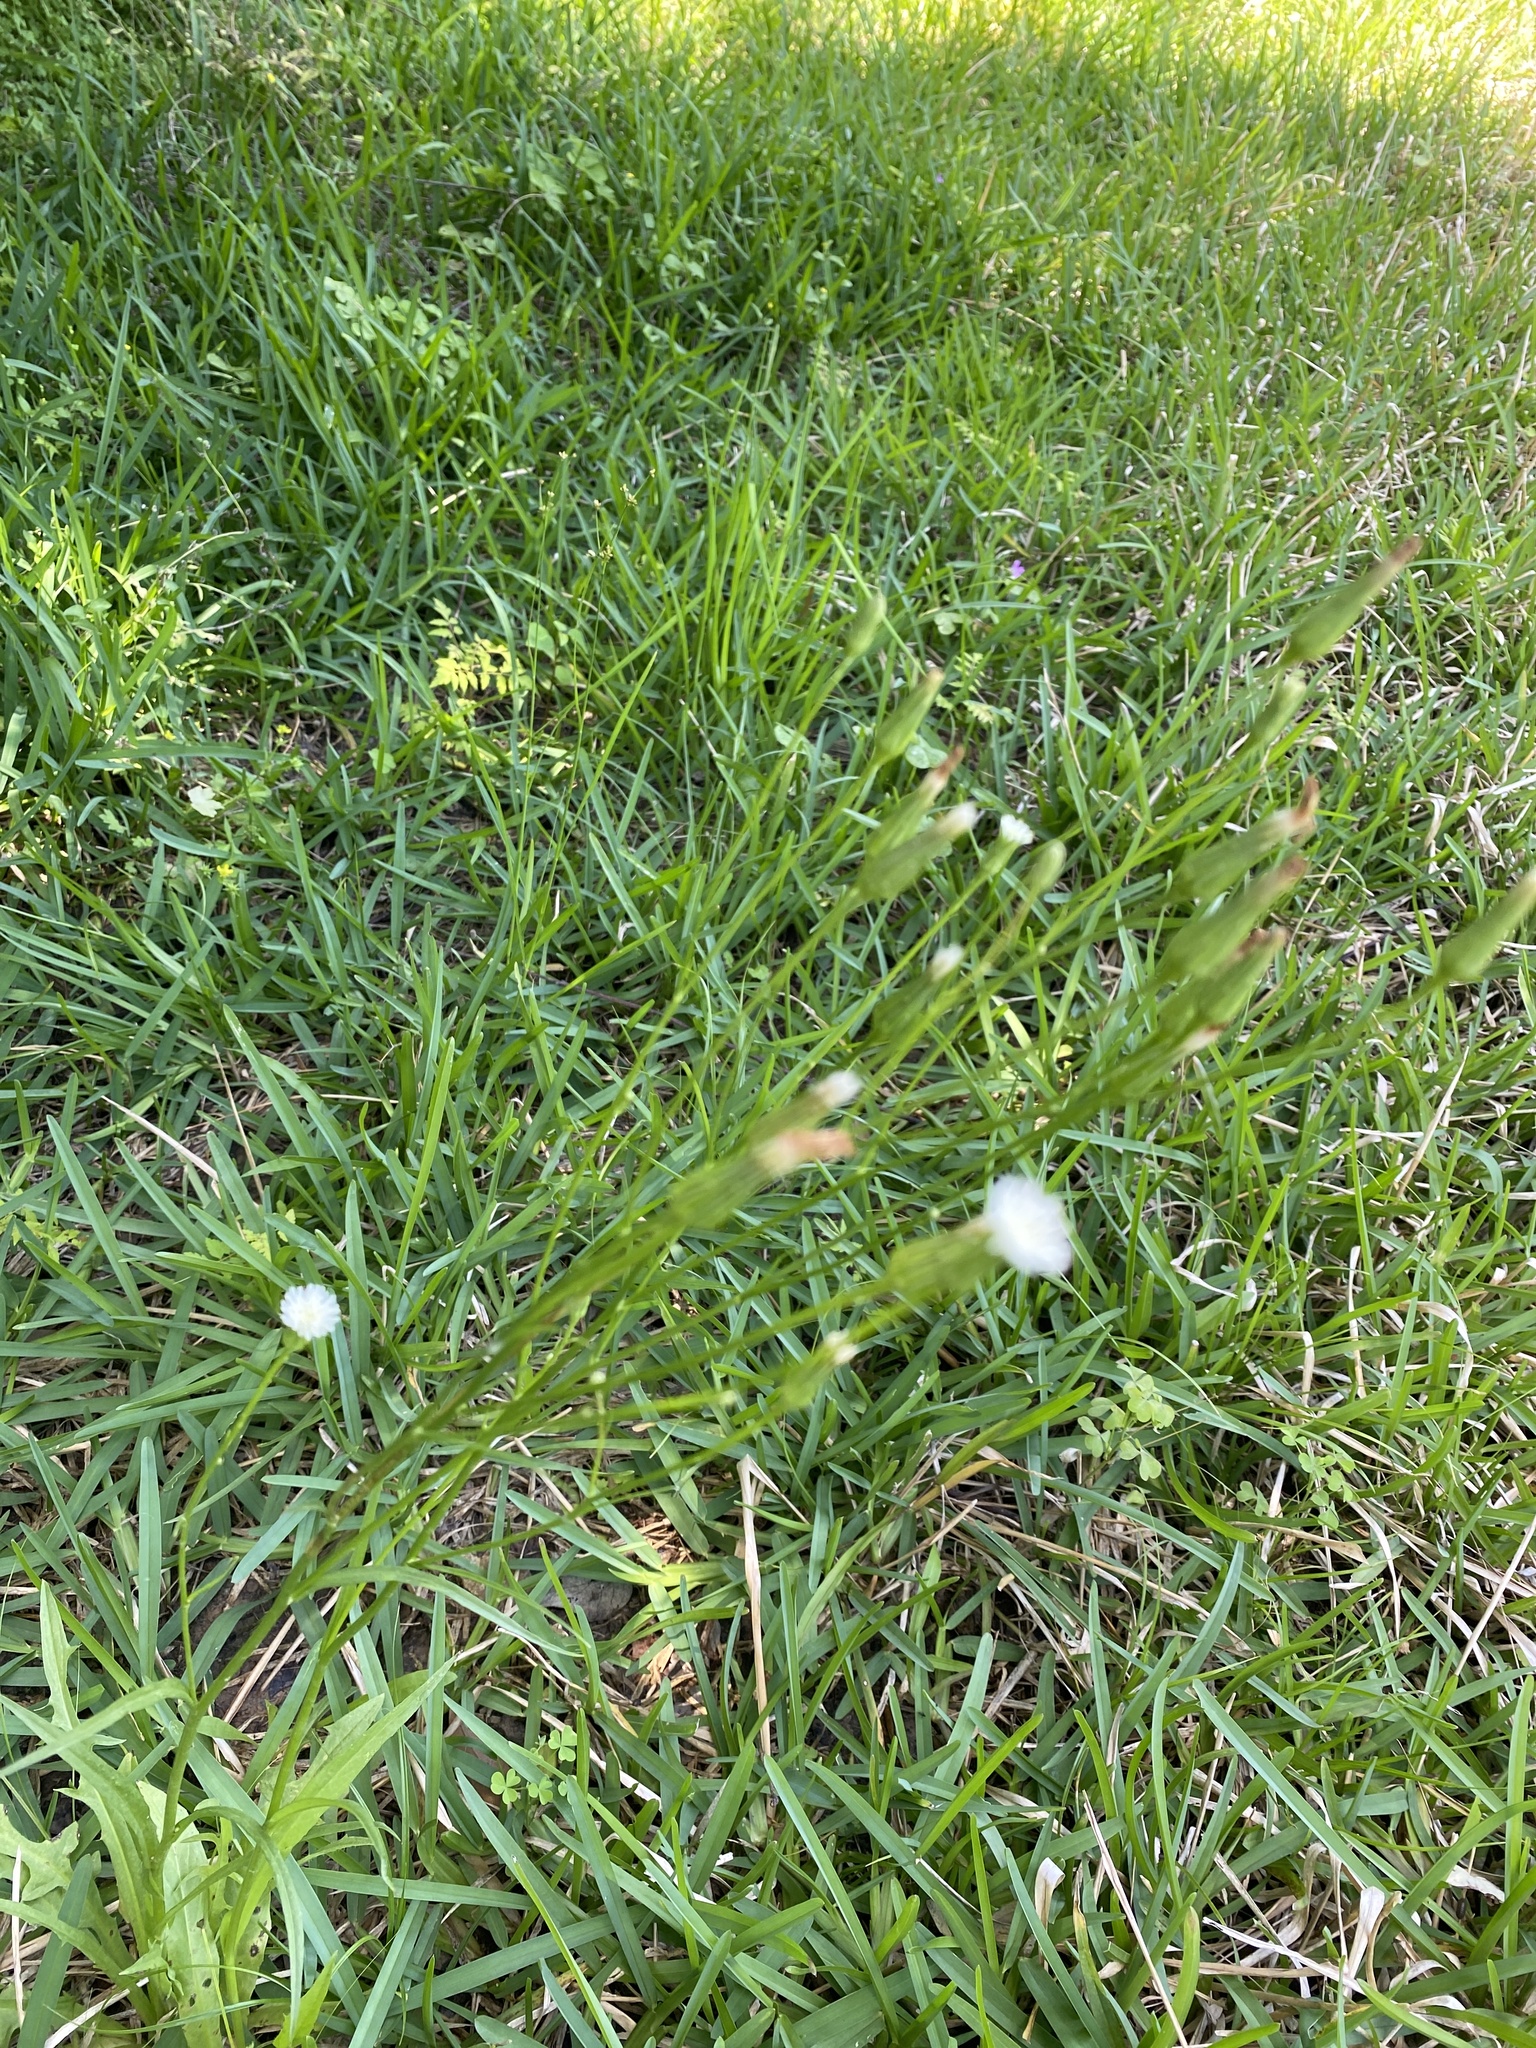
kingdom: Plantae
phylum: Tracheophyta
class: Magnoliopsida
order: Asterales
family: Asteraceae
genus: Hypochaeris
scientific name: Hypochaeris albiflora
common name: White flatweed
